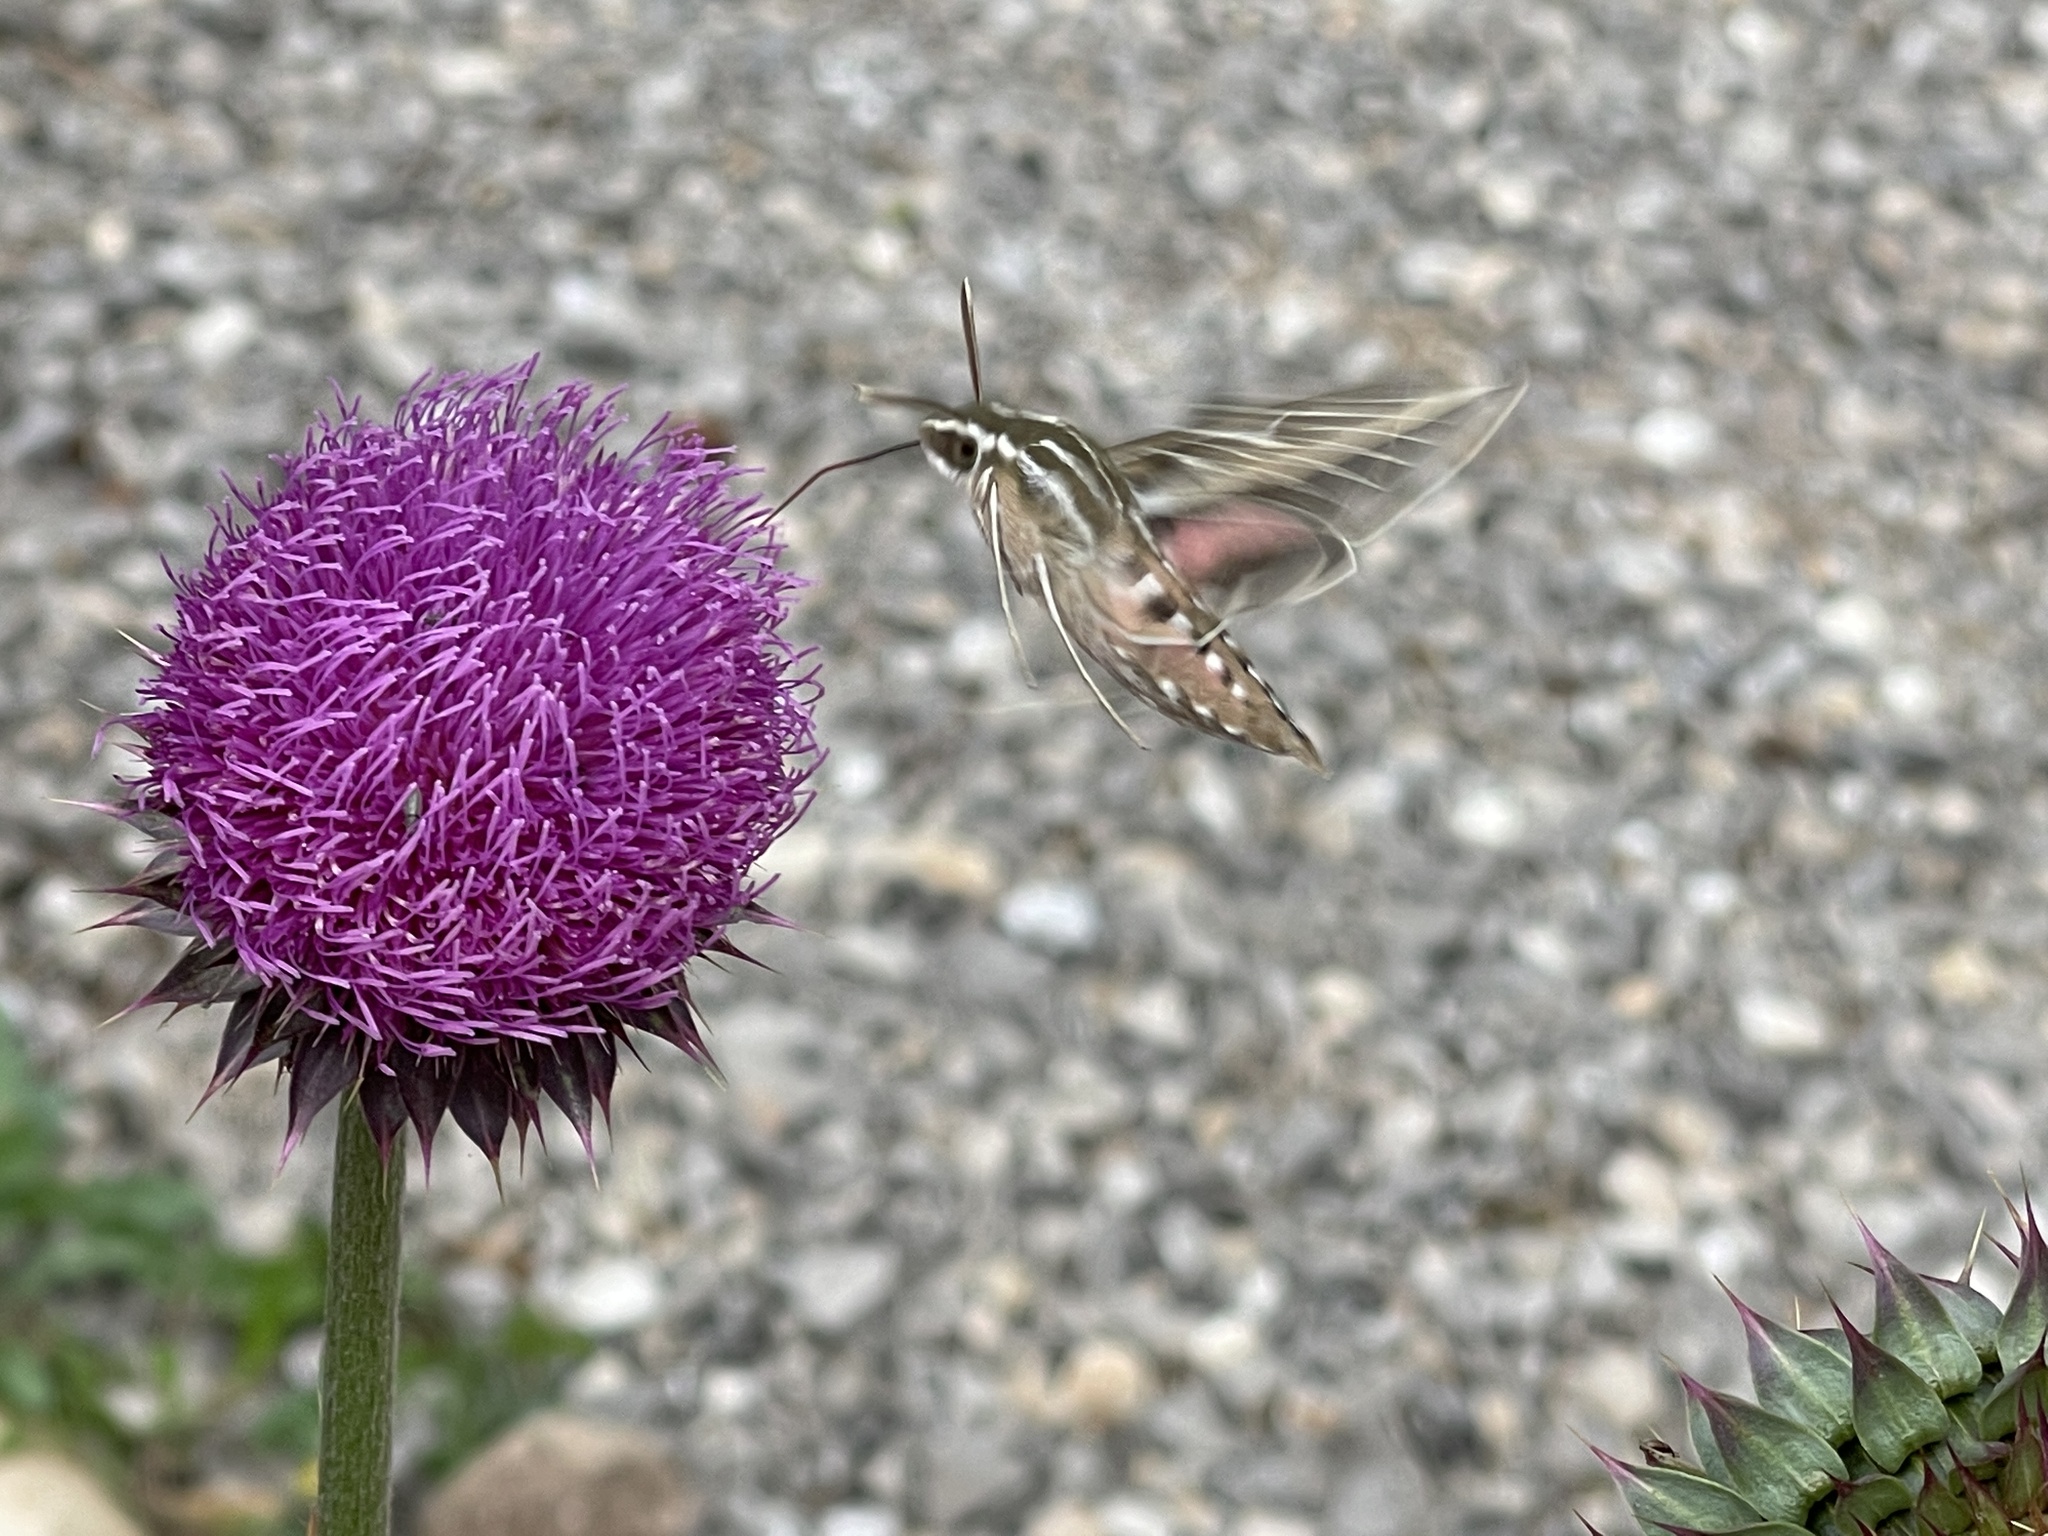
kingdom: Animalia
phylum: Arthropoda
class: Insecta
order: Lepidoptera
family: Sphingidae
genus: Hyles
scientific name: Hyles lineata
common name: White-lined sphinx
